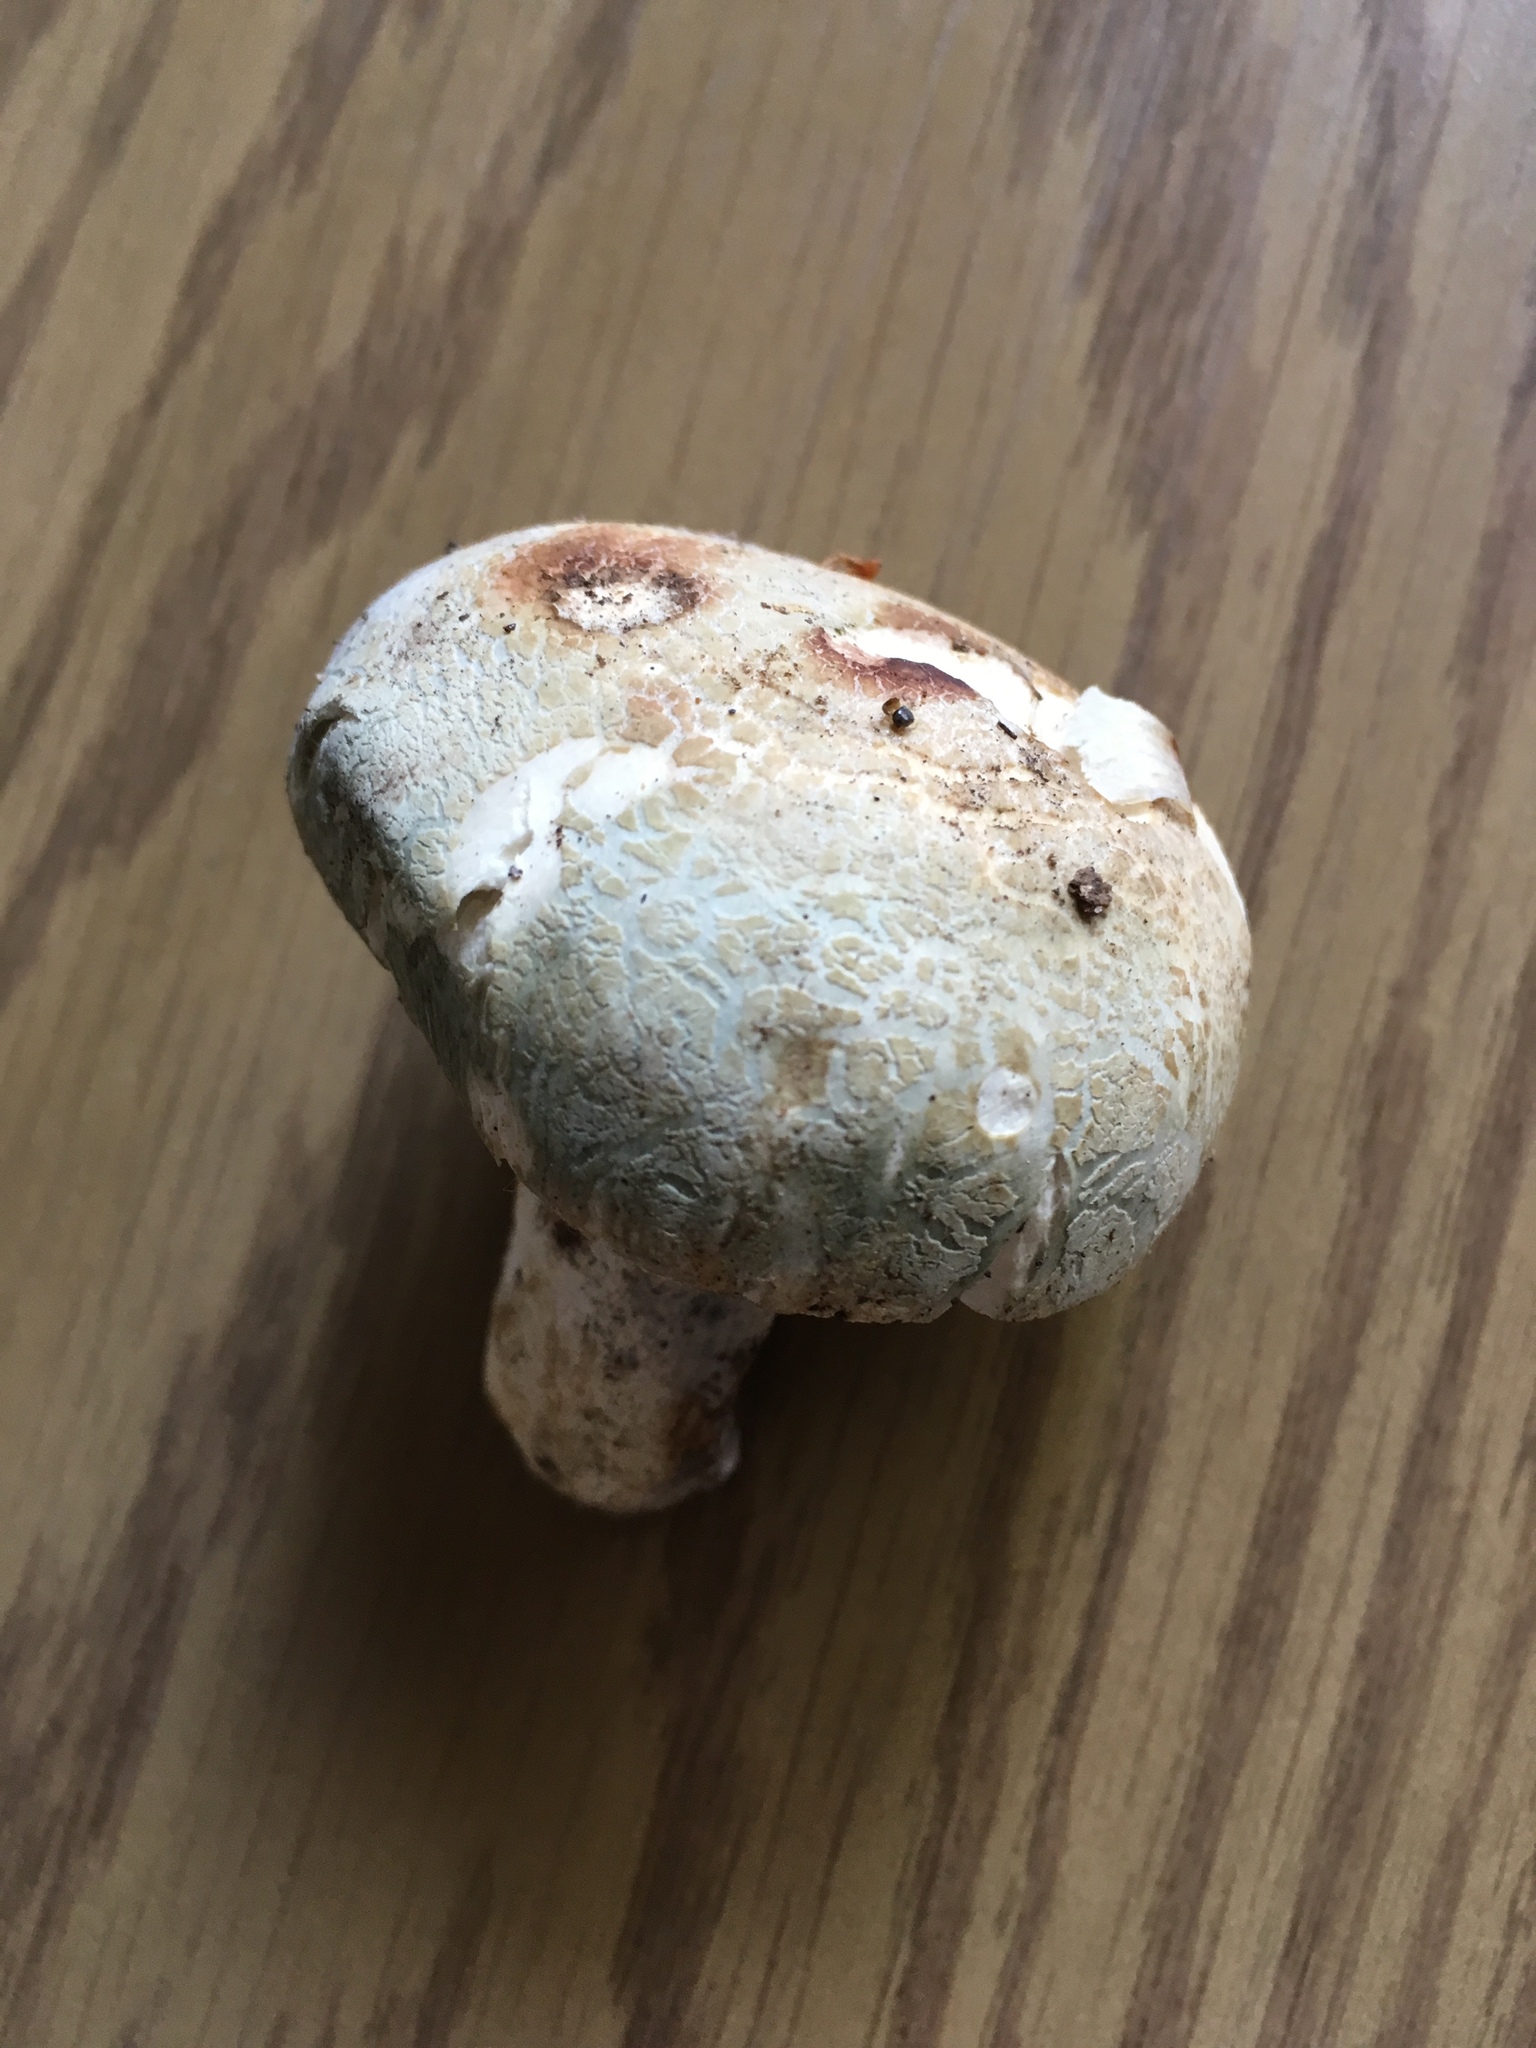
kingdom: Fungi
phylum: Basidiomycota
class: Agaricomycetes
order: Russulales
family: Russulaceae
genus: Russula
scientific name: Russula virescens
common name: Greencracked brittlegill
